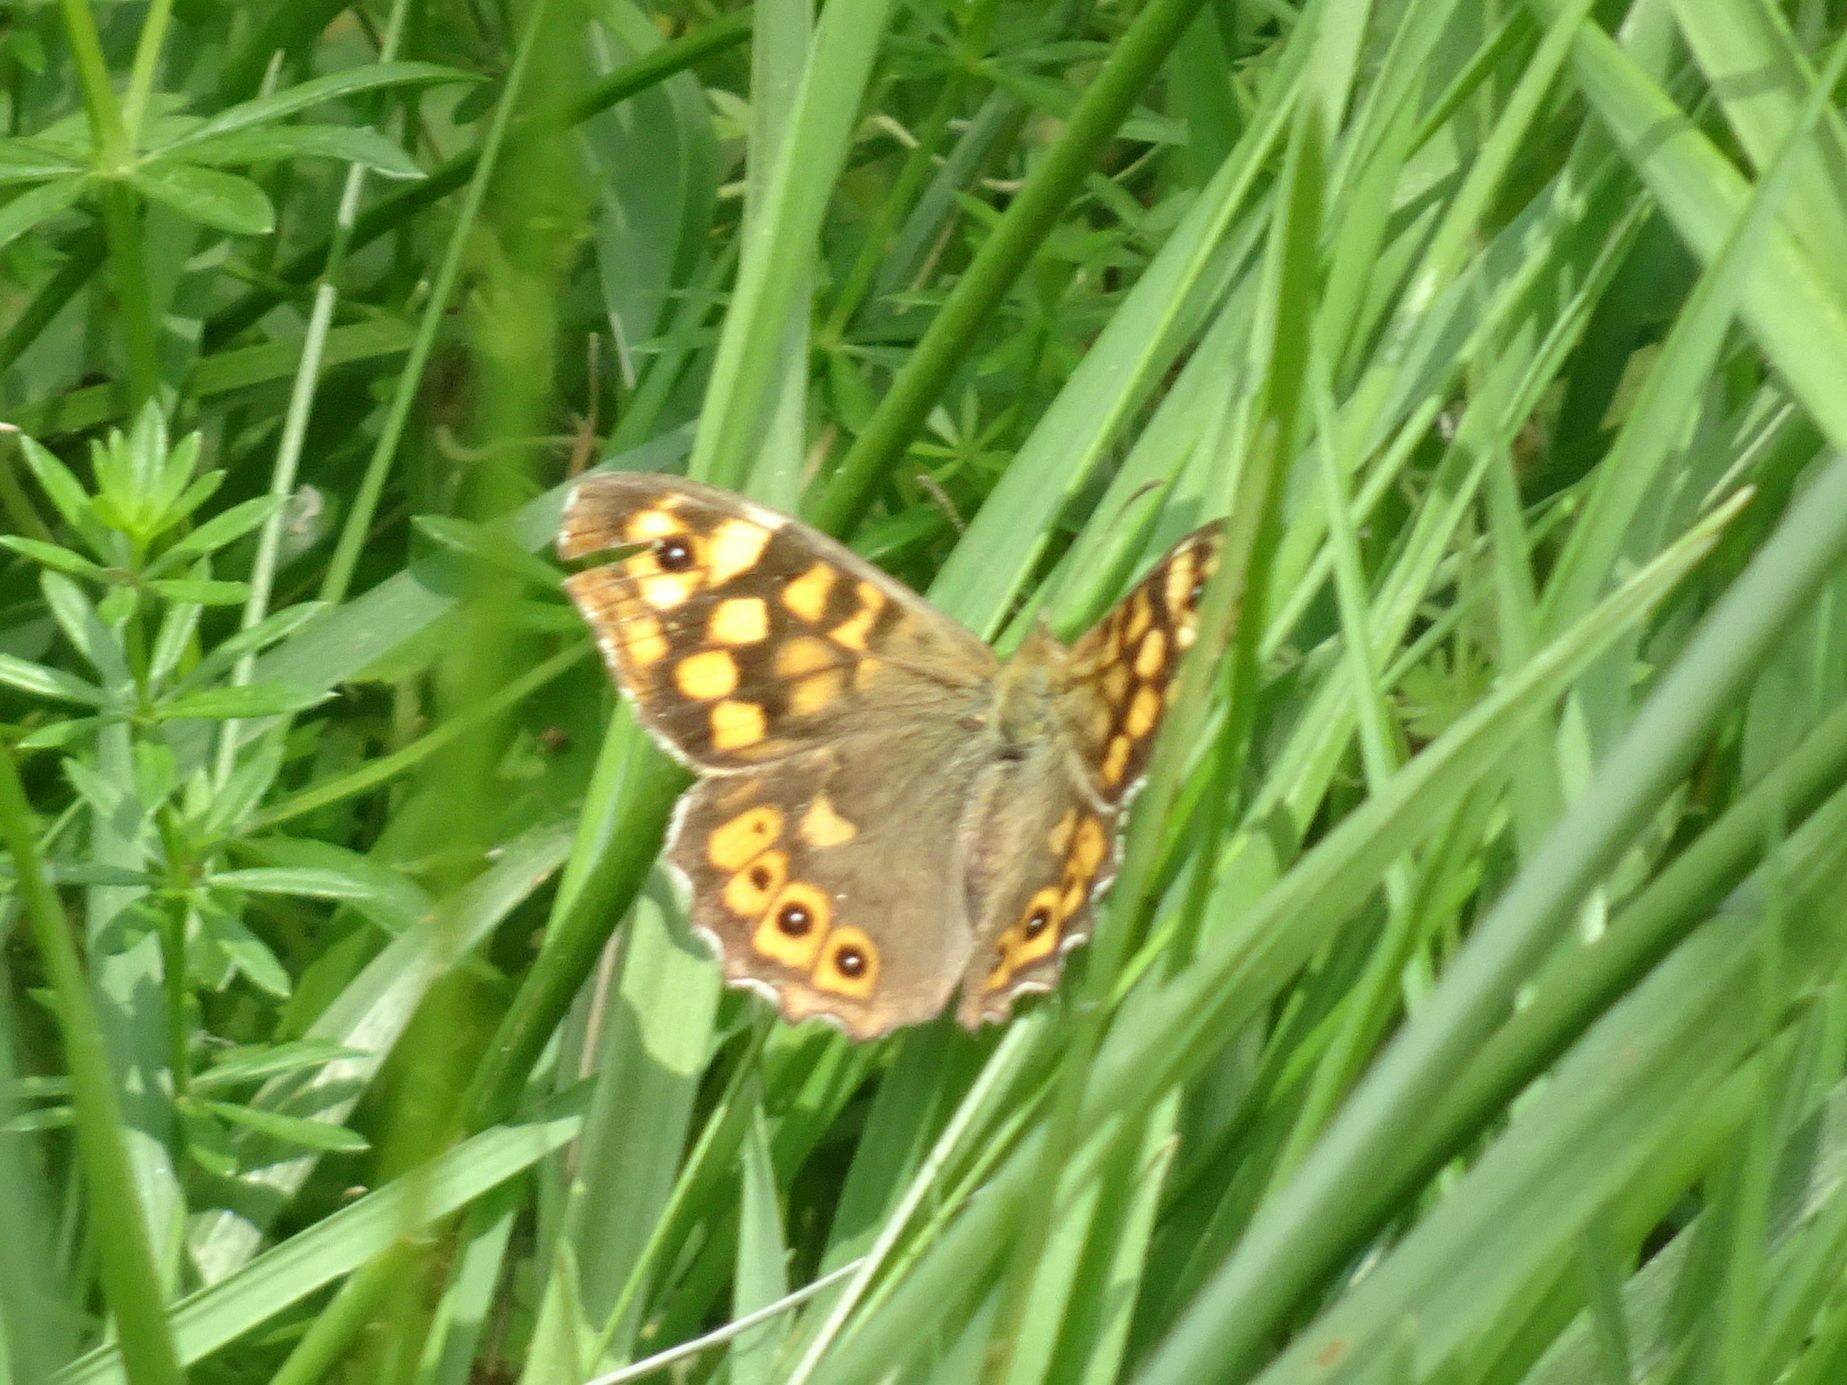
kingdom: Animalia
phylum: Arthropoda
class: Insecta
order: Lepidoptera
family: Nymphalidae
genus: Pararge
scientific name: Pararge aegeria
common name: Speckled wood
